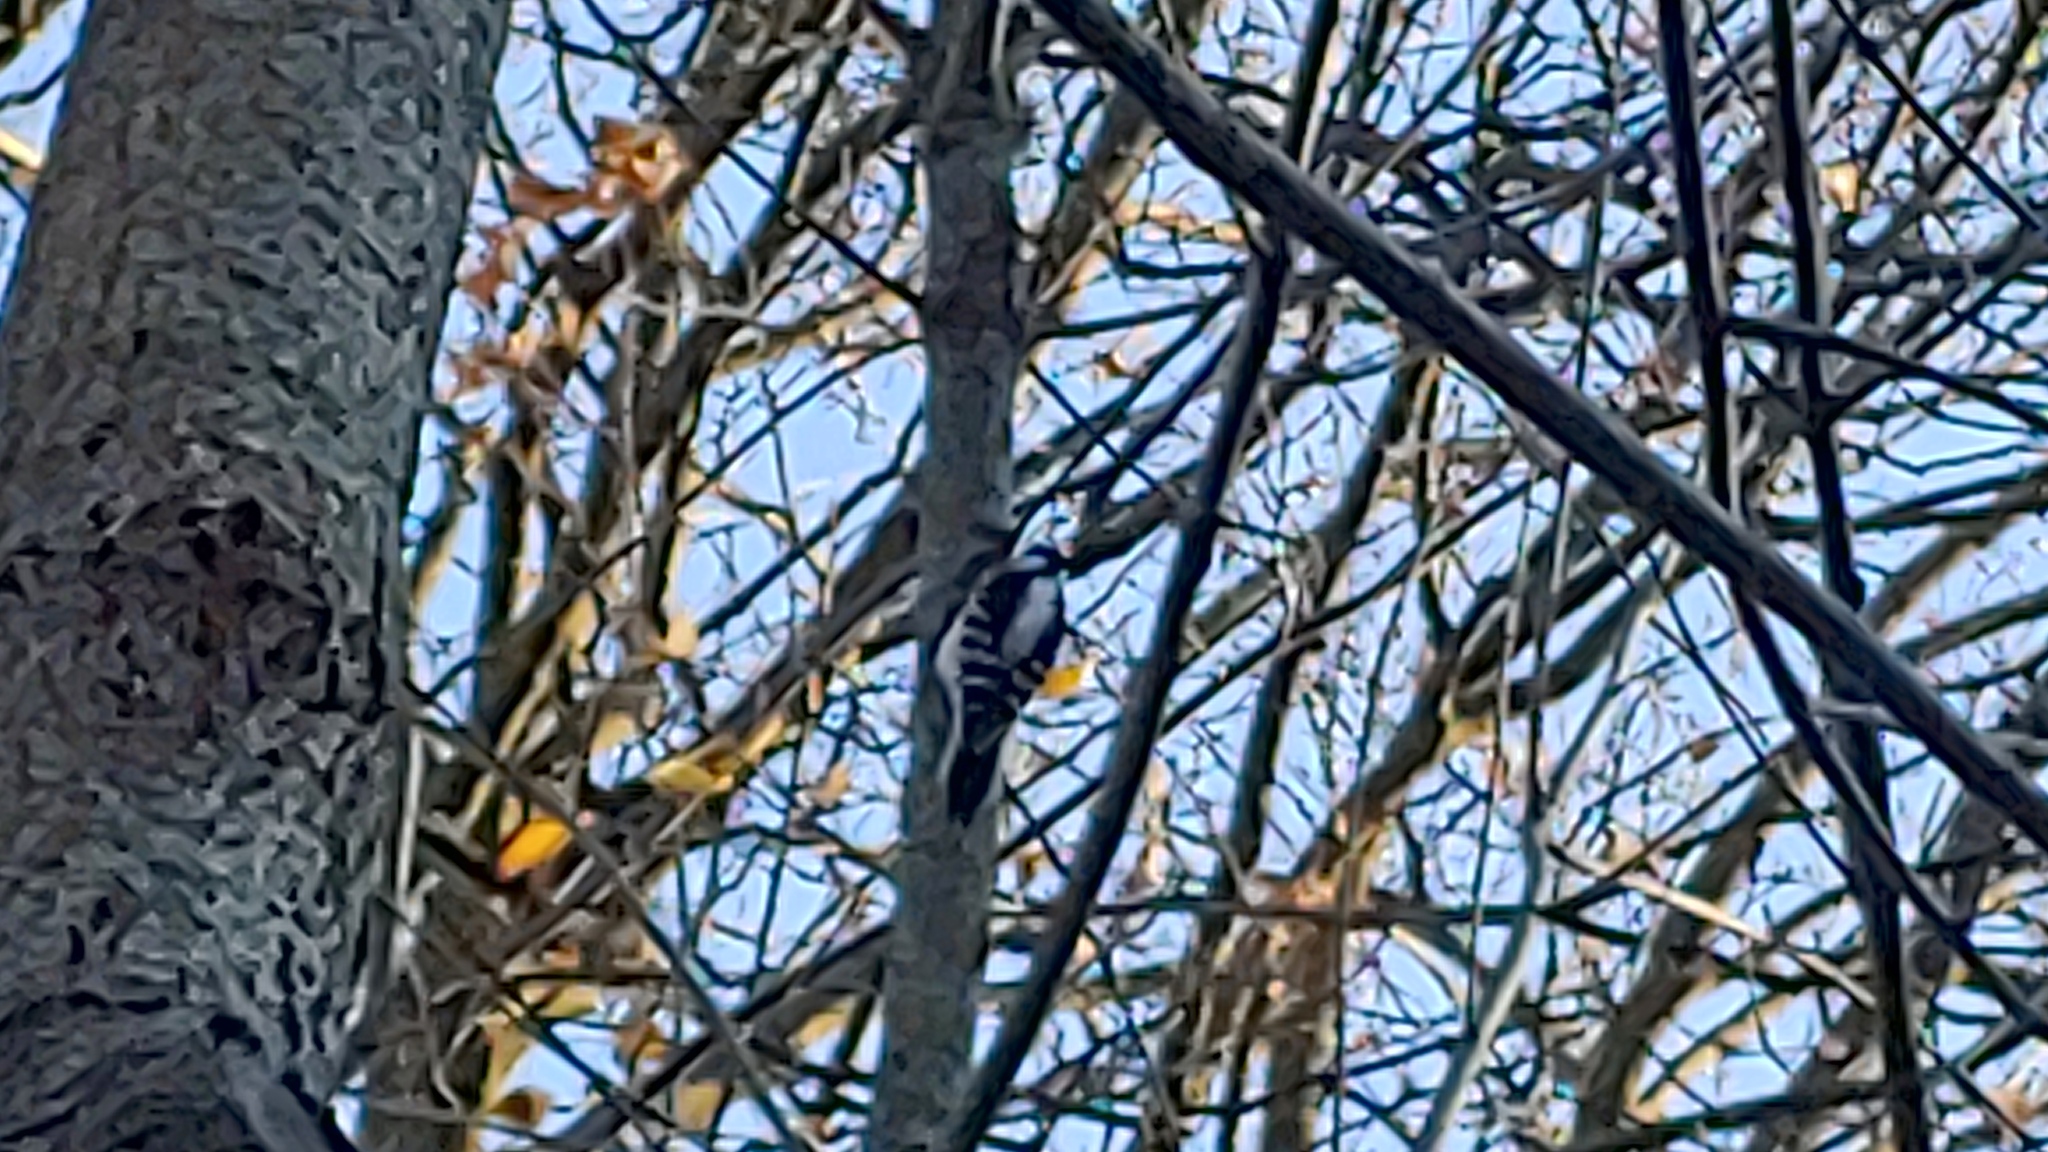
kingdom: Animalia
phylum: Chordata
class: Aves
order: Piciformes
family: Picidae
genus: Leuconotopicus
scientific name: Leuconotopicus villosus
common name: Hairy woodpecker
